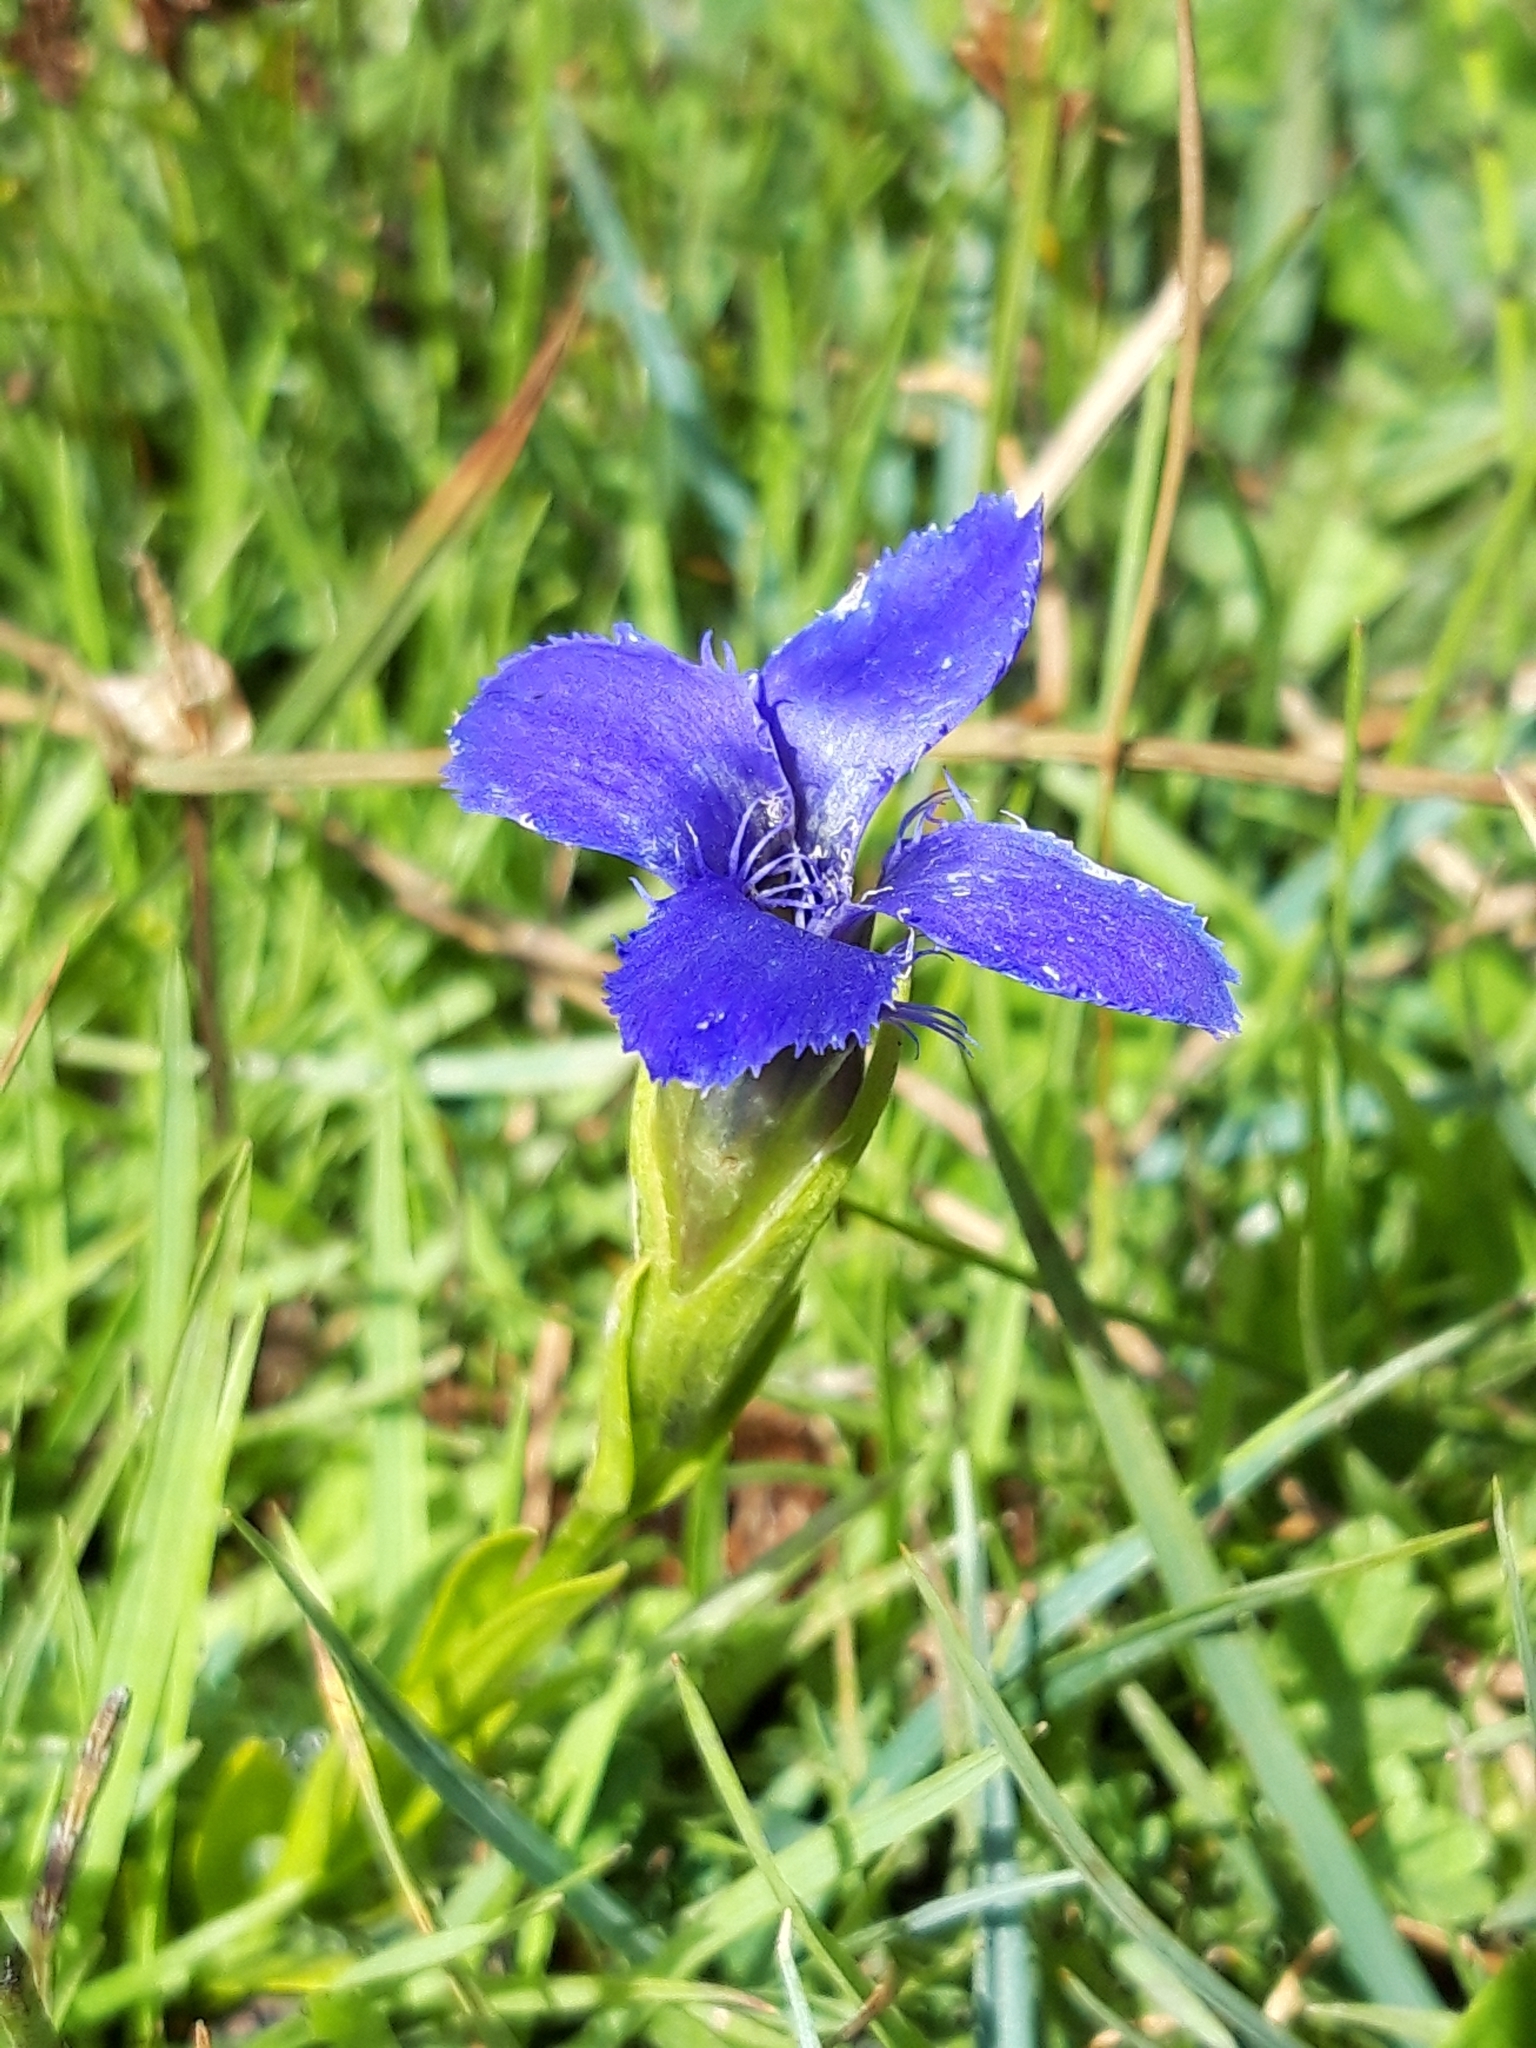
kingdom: Plantae
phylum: Tracheophyta
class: Magnoliopsida
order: Gentianales
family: Gentianaceae
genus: Gentianopsis
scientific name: Gentianopsis ciliata
